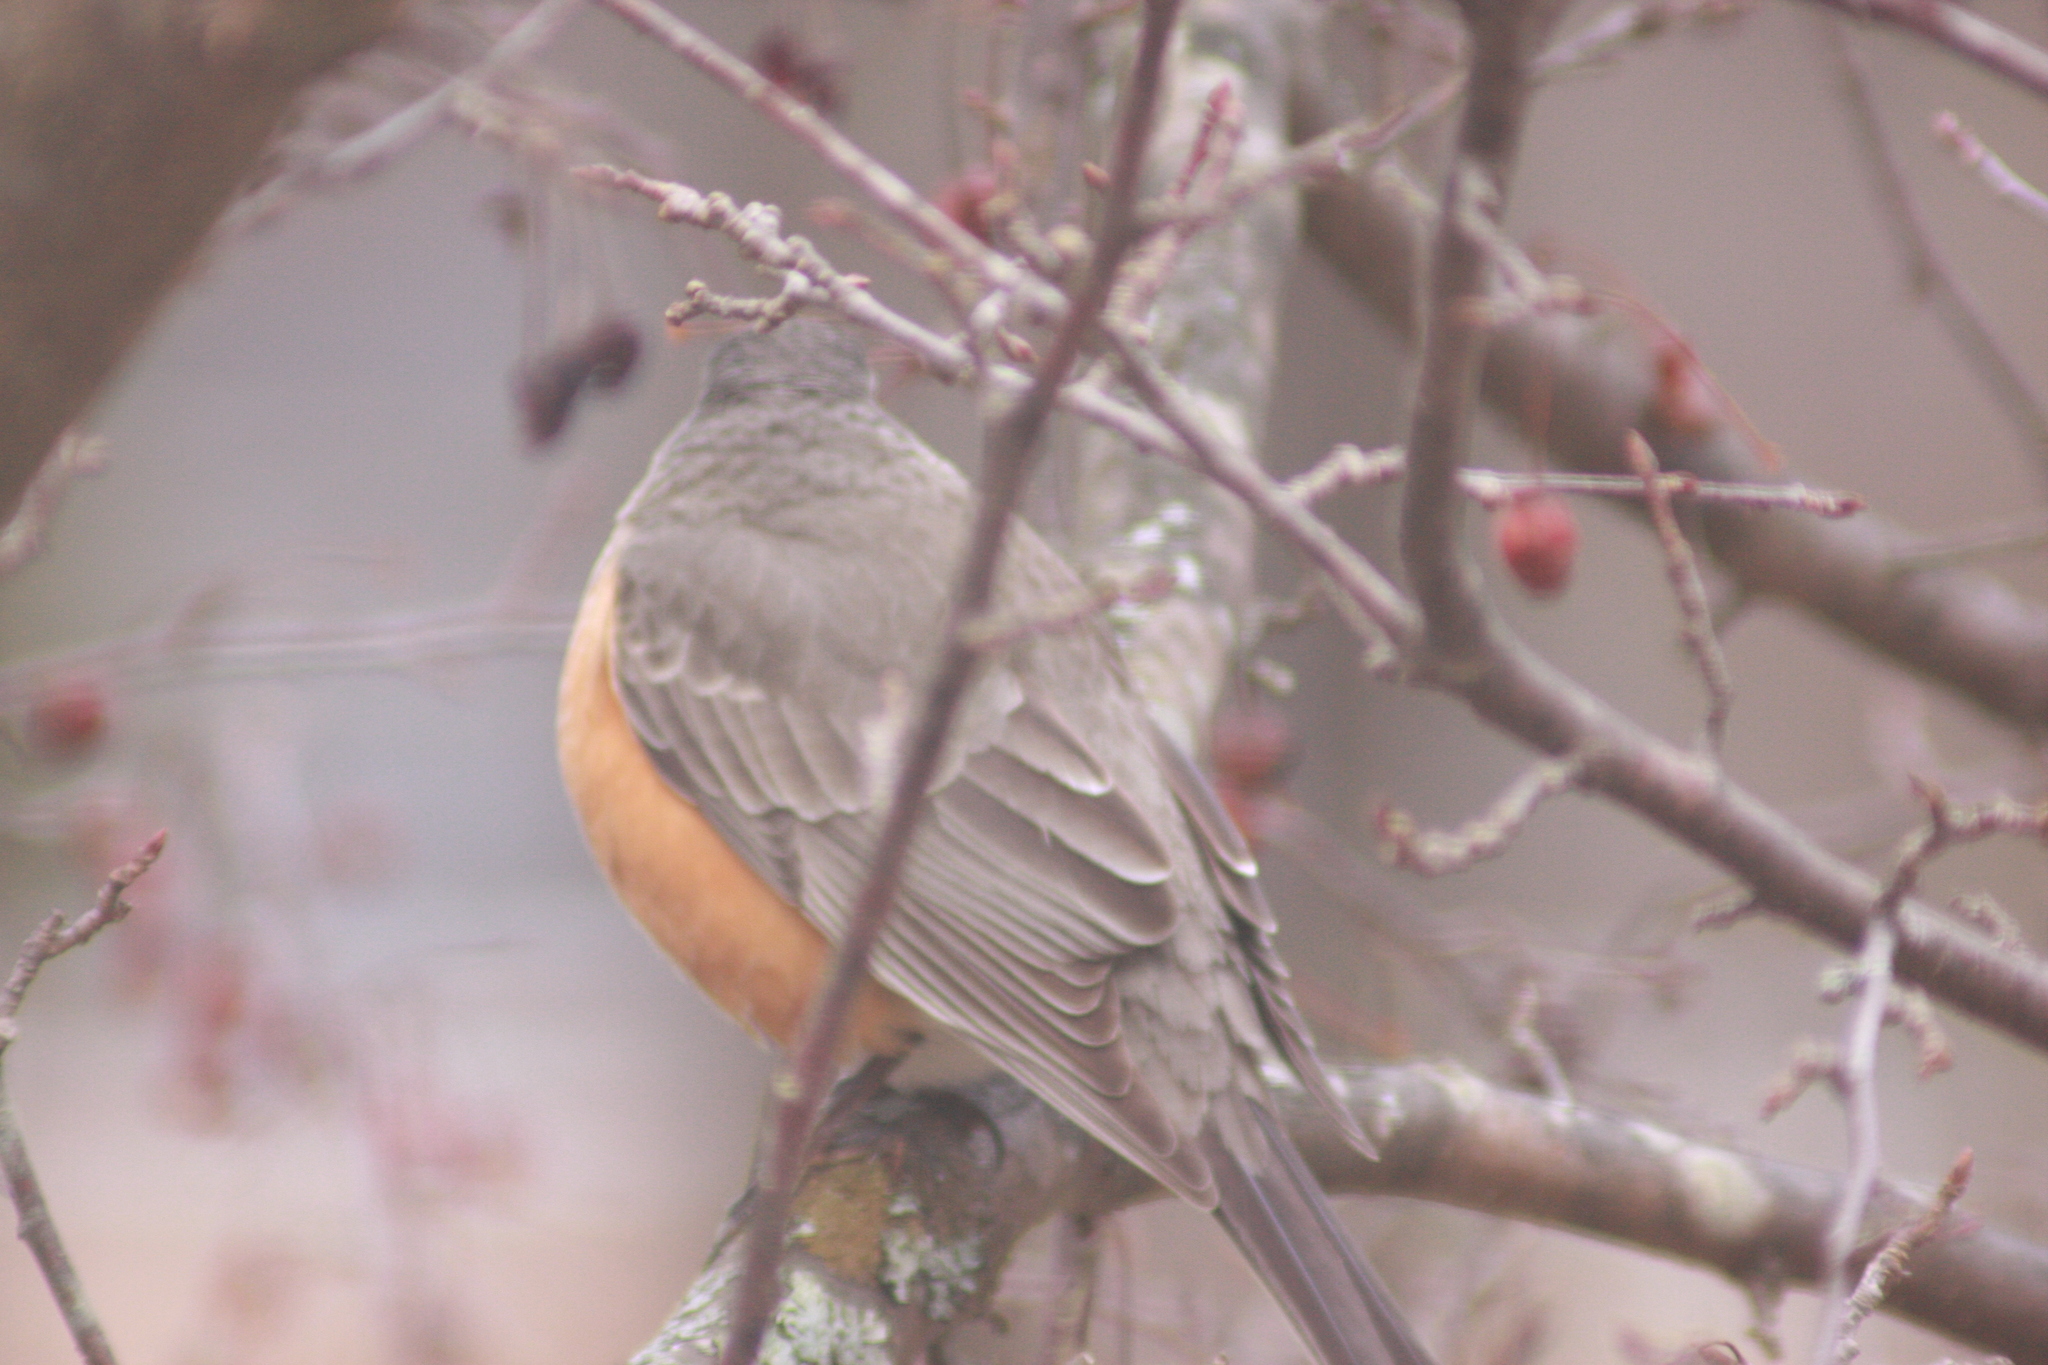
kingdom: Animalia
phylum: Chordata
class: Aves
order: Passeriformes
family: Turdidae
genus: Turdus
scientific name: Turdus migratorius
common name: American robin
